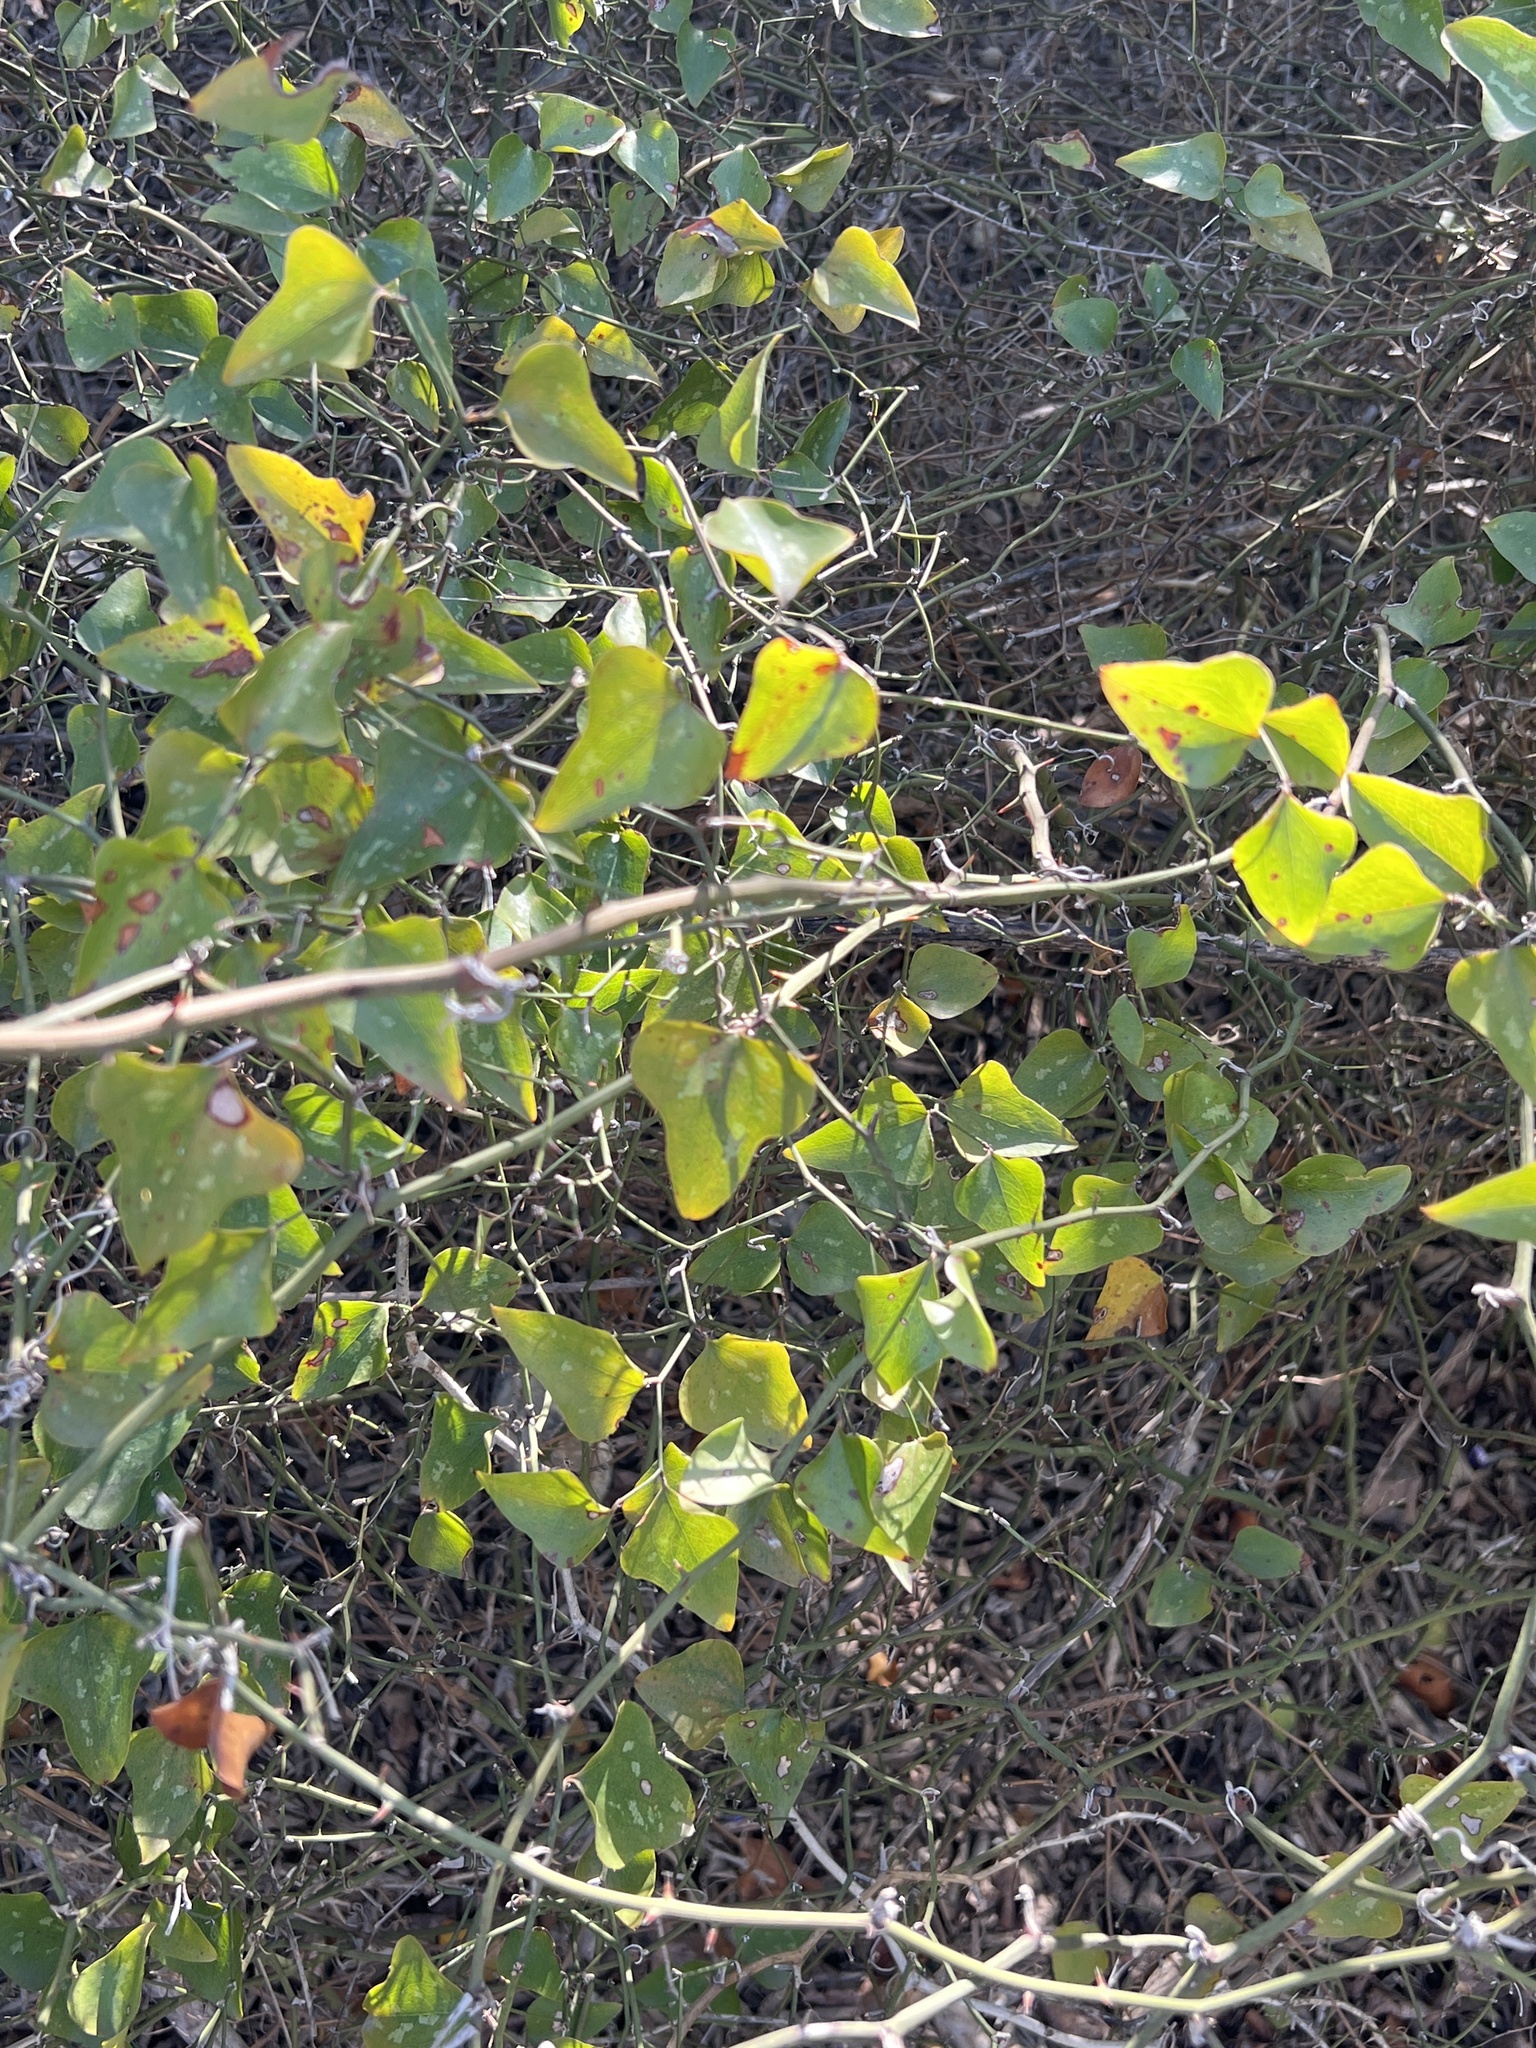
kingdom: Plantae
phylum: Tracheophyta
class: Liliopsida
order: Liliales
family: Smilacaceae
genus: Smilax
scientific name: Smilax bona-nox
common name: Catbrier
